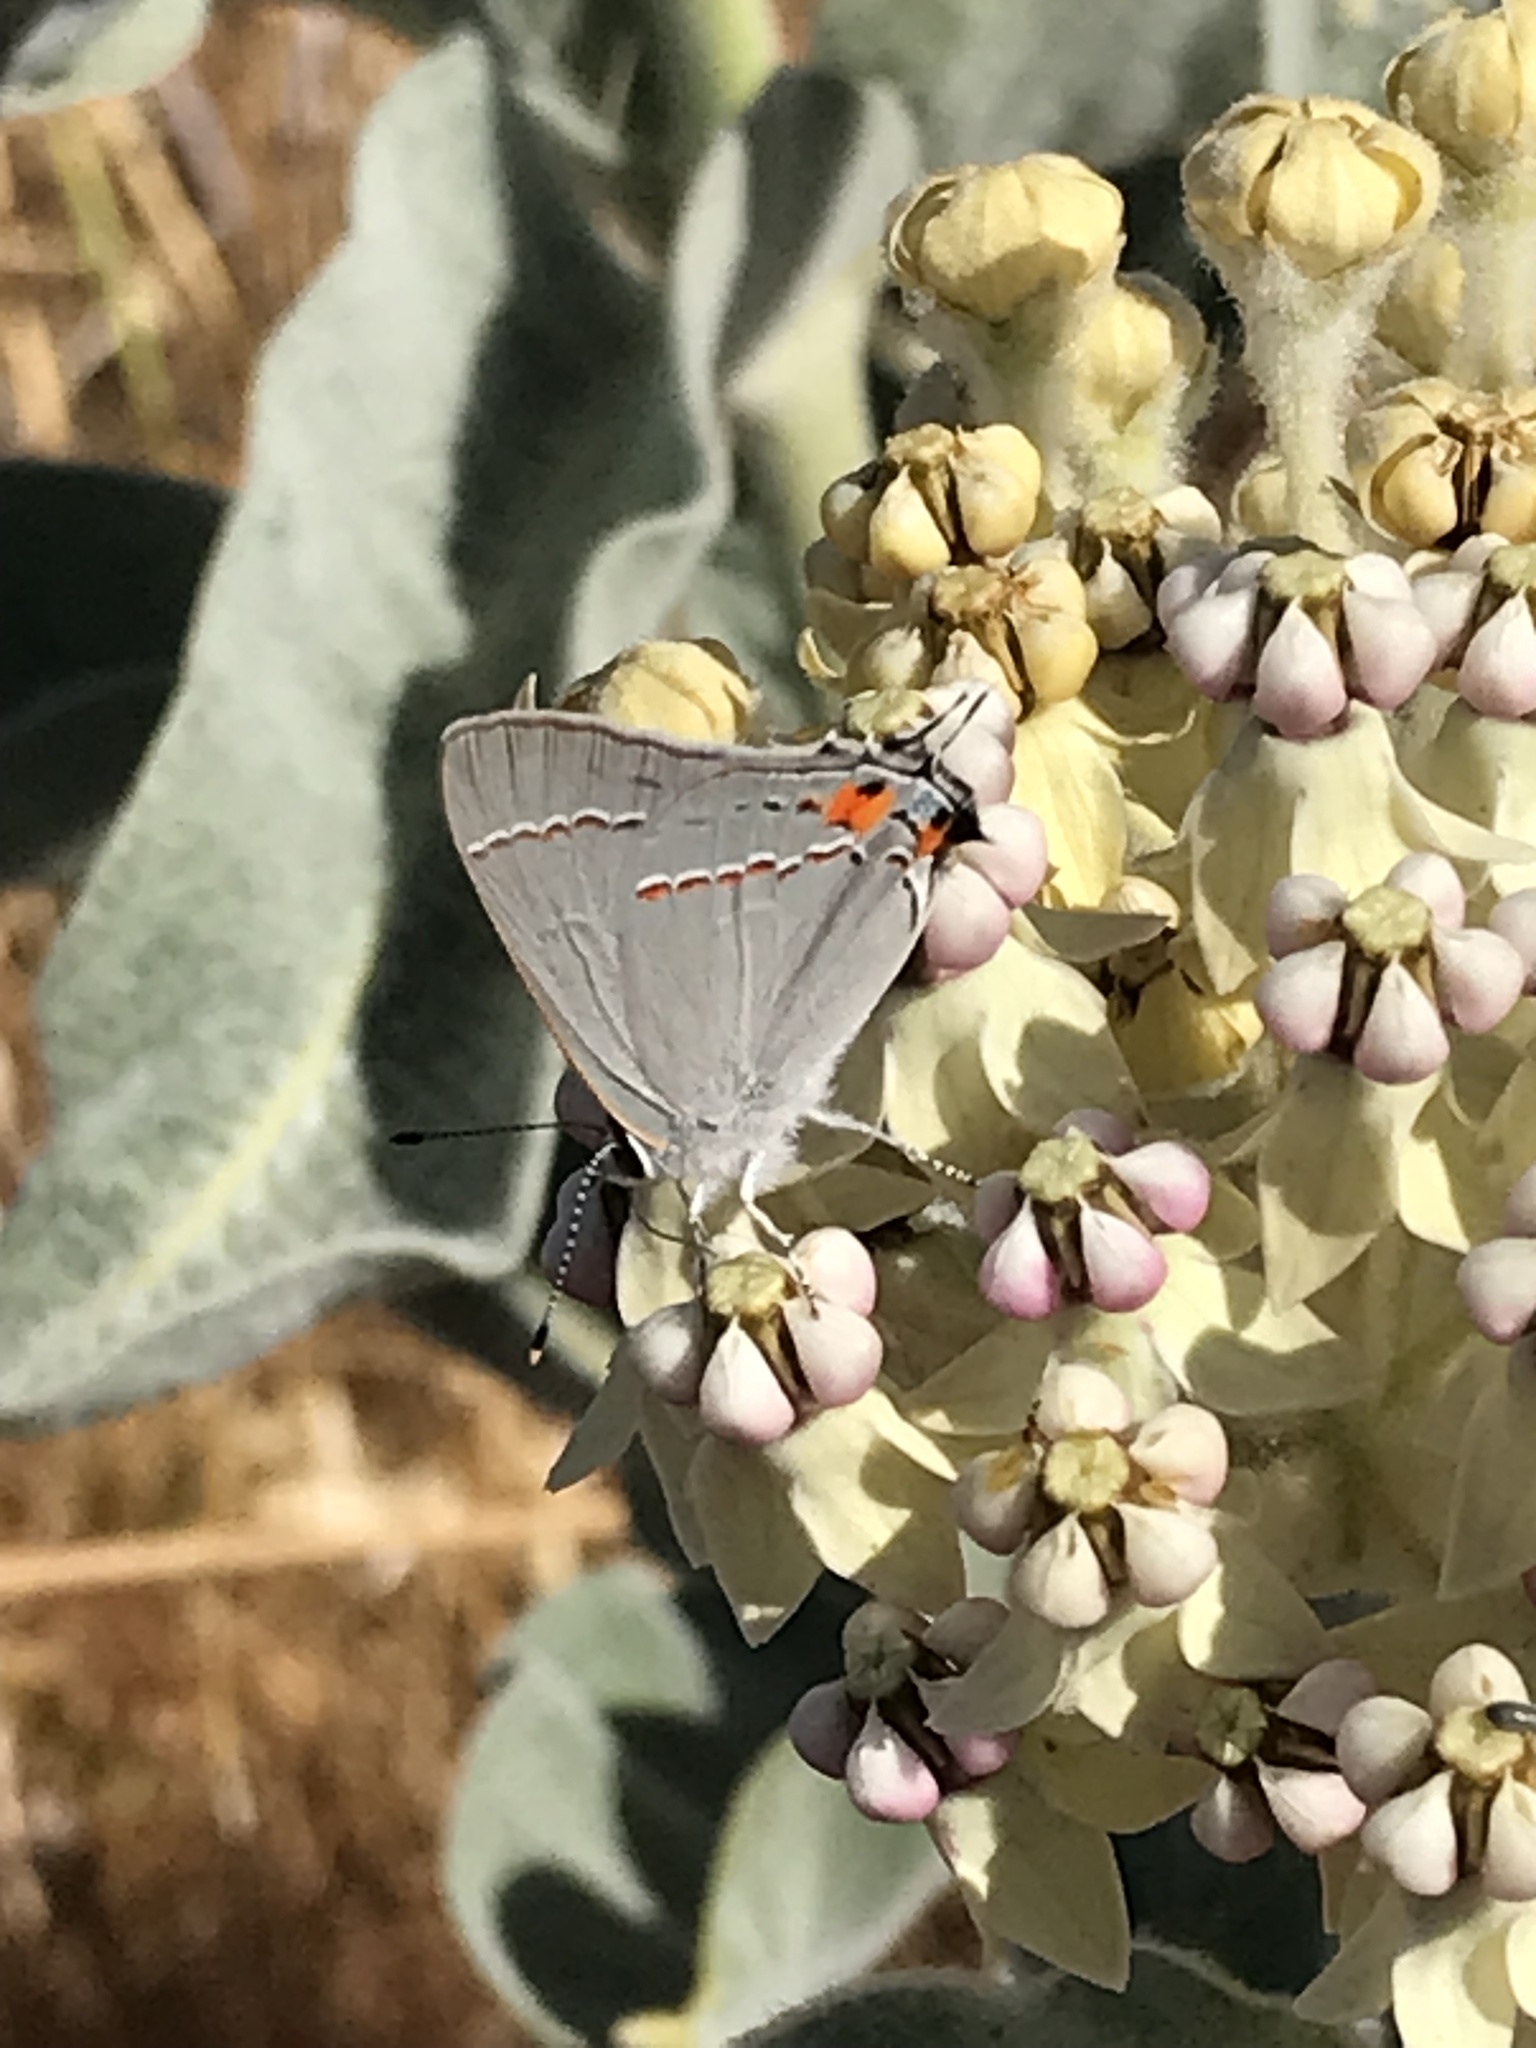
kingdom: Animalia
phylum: Arthropoda
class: Insecta
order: Lepidoptera
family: Lycaenidae
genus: Strymon
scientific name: Strymon melinus
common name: Gray hairstreak
